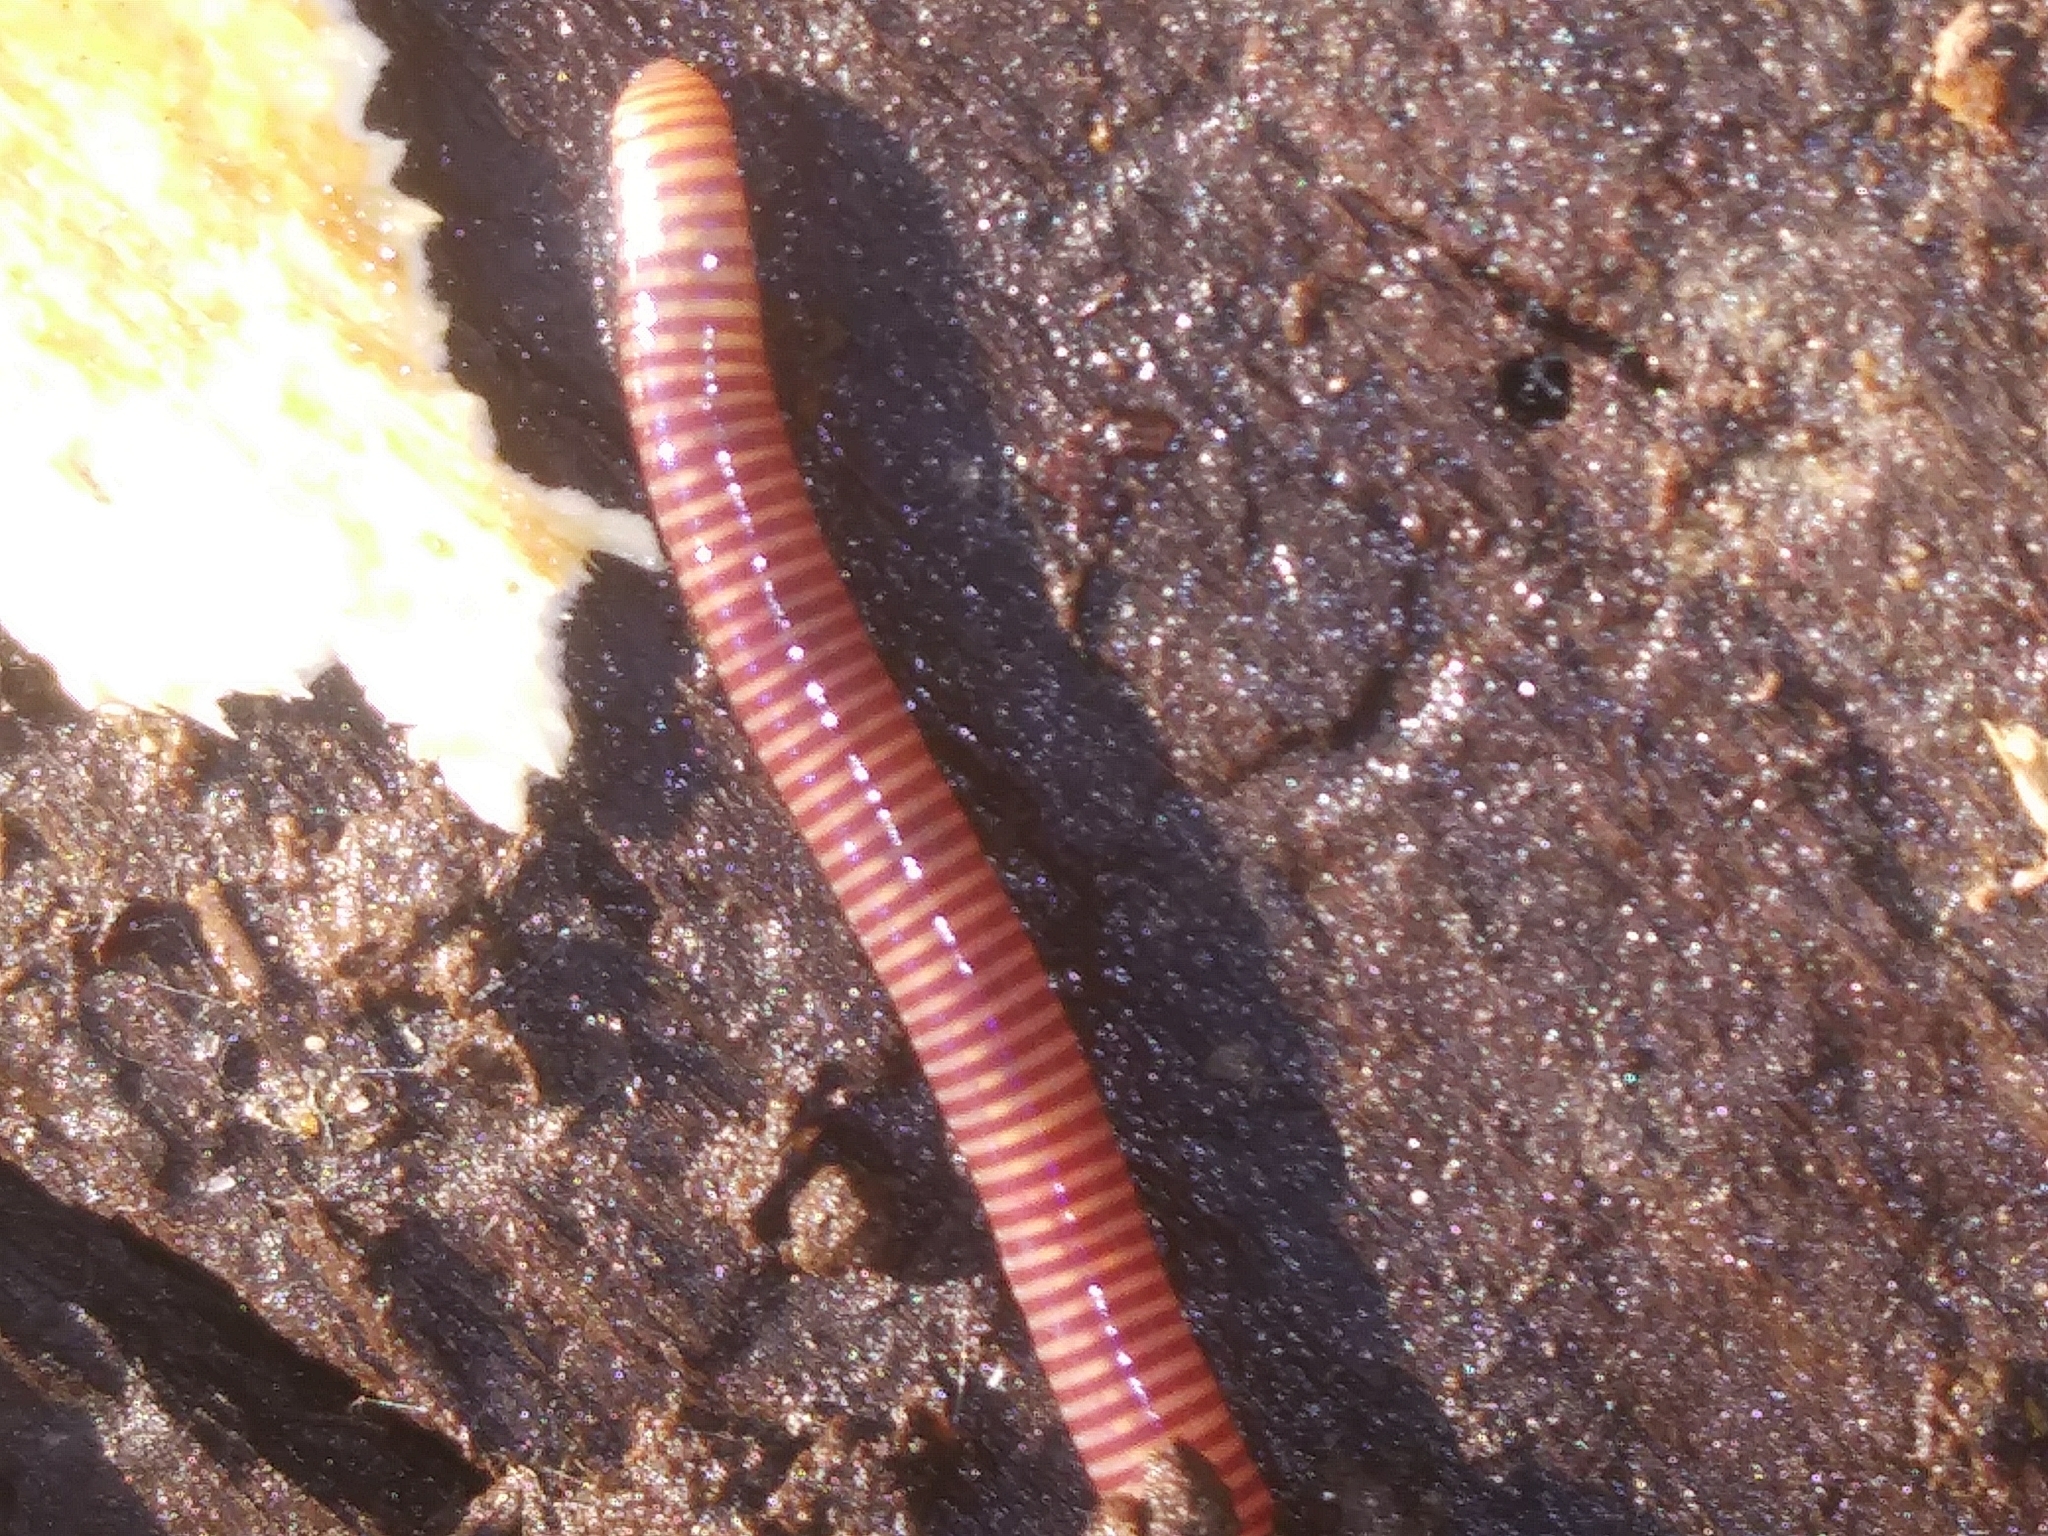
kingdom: Animalia
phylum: Annelida
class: Clitellata
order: Crassiclitellata
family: Lumbricidae
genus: Eisenia
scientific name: Eisenia fetida
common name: Red wiggler
